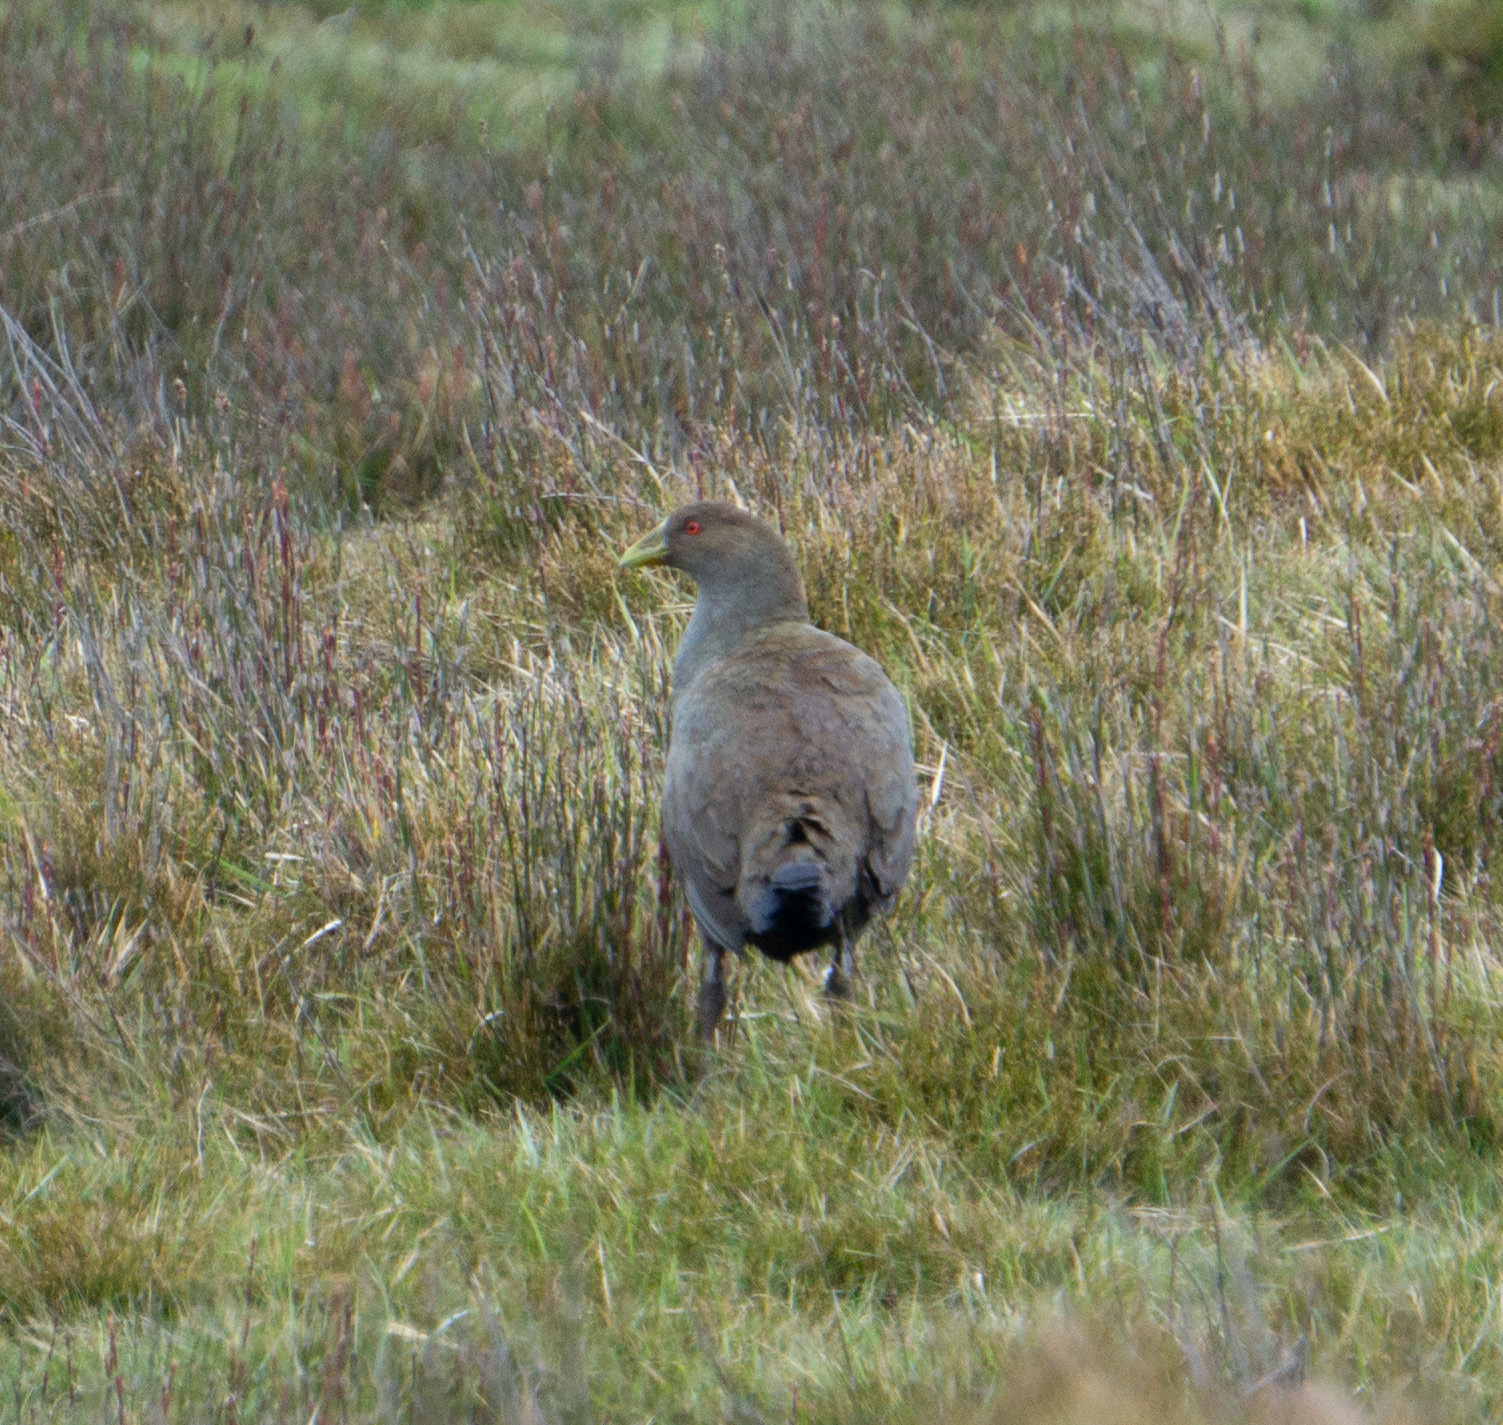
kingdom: Animalia
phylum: Chordata
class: Aves
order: Gruiformes
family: Rallidae
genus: Gallinula
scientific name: Gallinula mortierii
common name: Tasmanian nativehen
